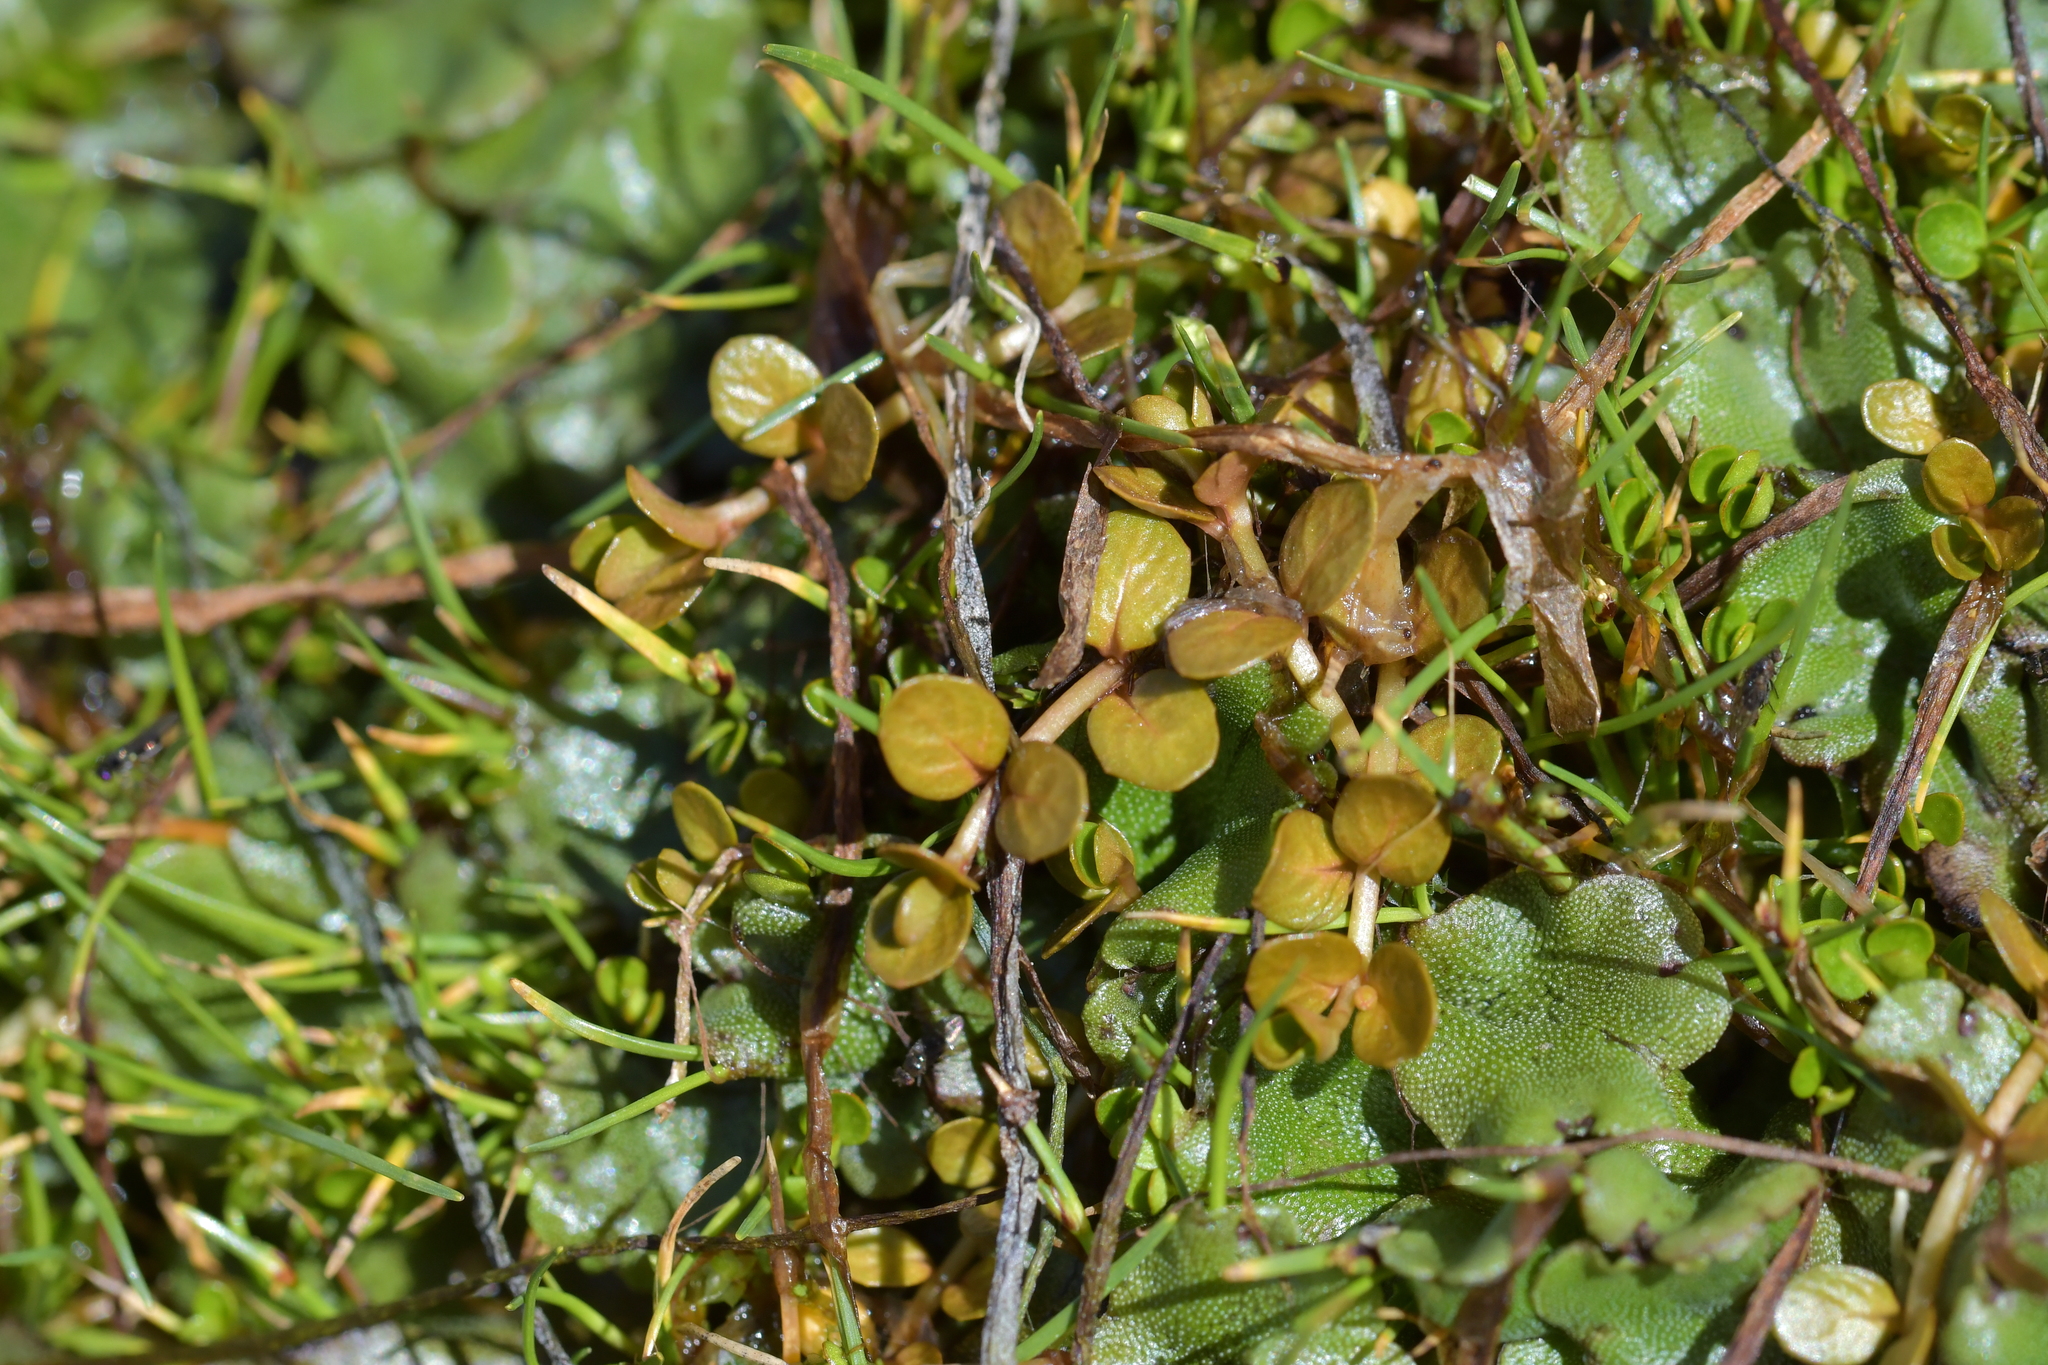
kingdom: Plantae
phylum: Tracheophyta
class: Magnoliopsida
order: Myrtales
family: Onagraceae
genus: Epilobium
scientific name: Epilobium komarovianum
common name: Bronzy willowherb
